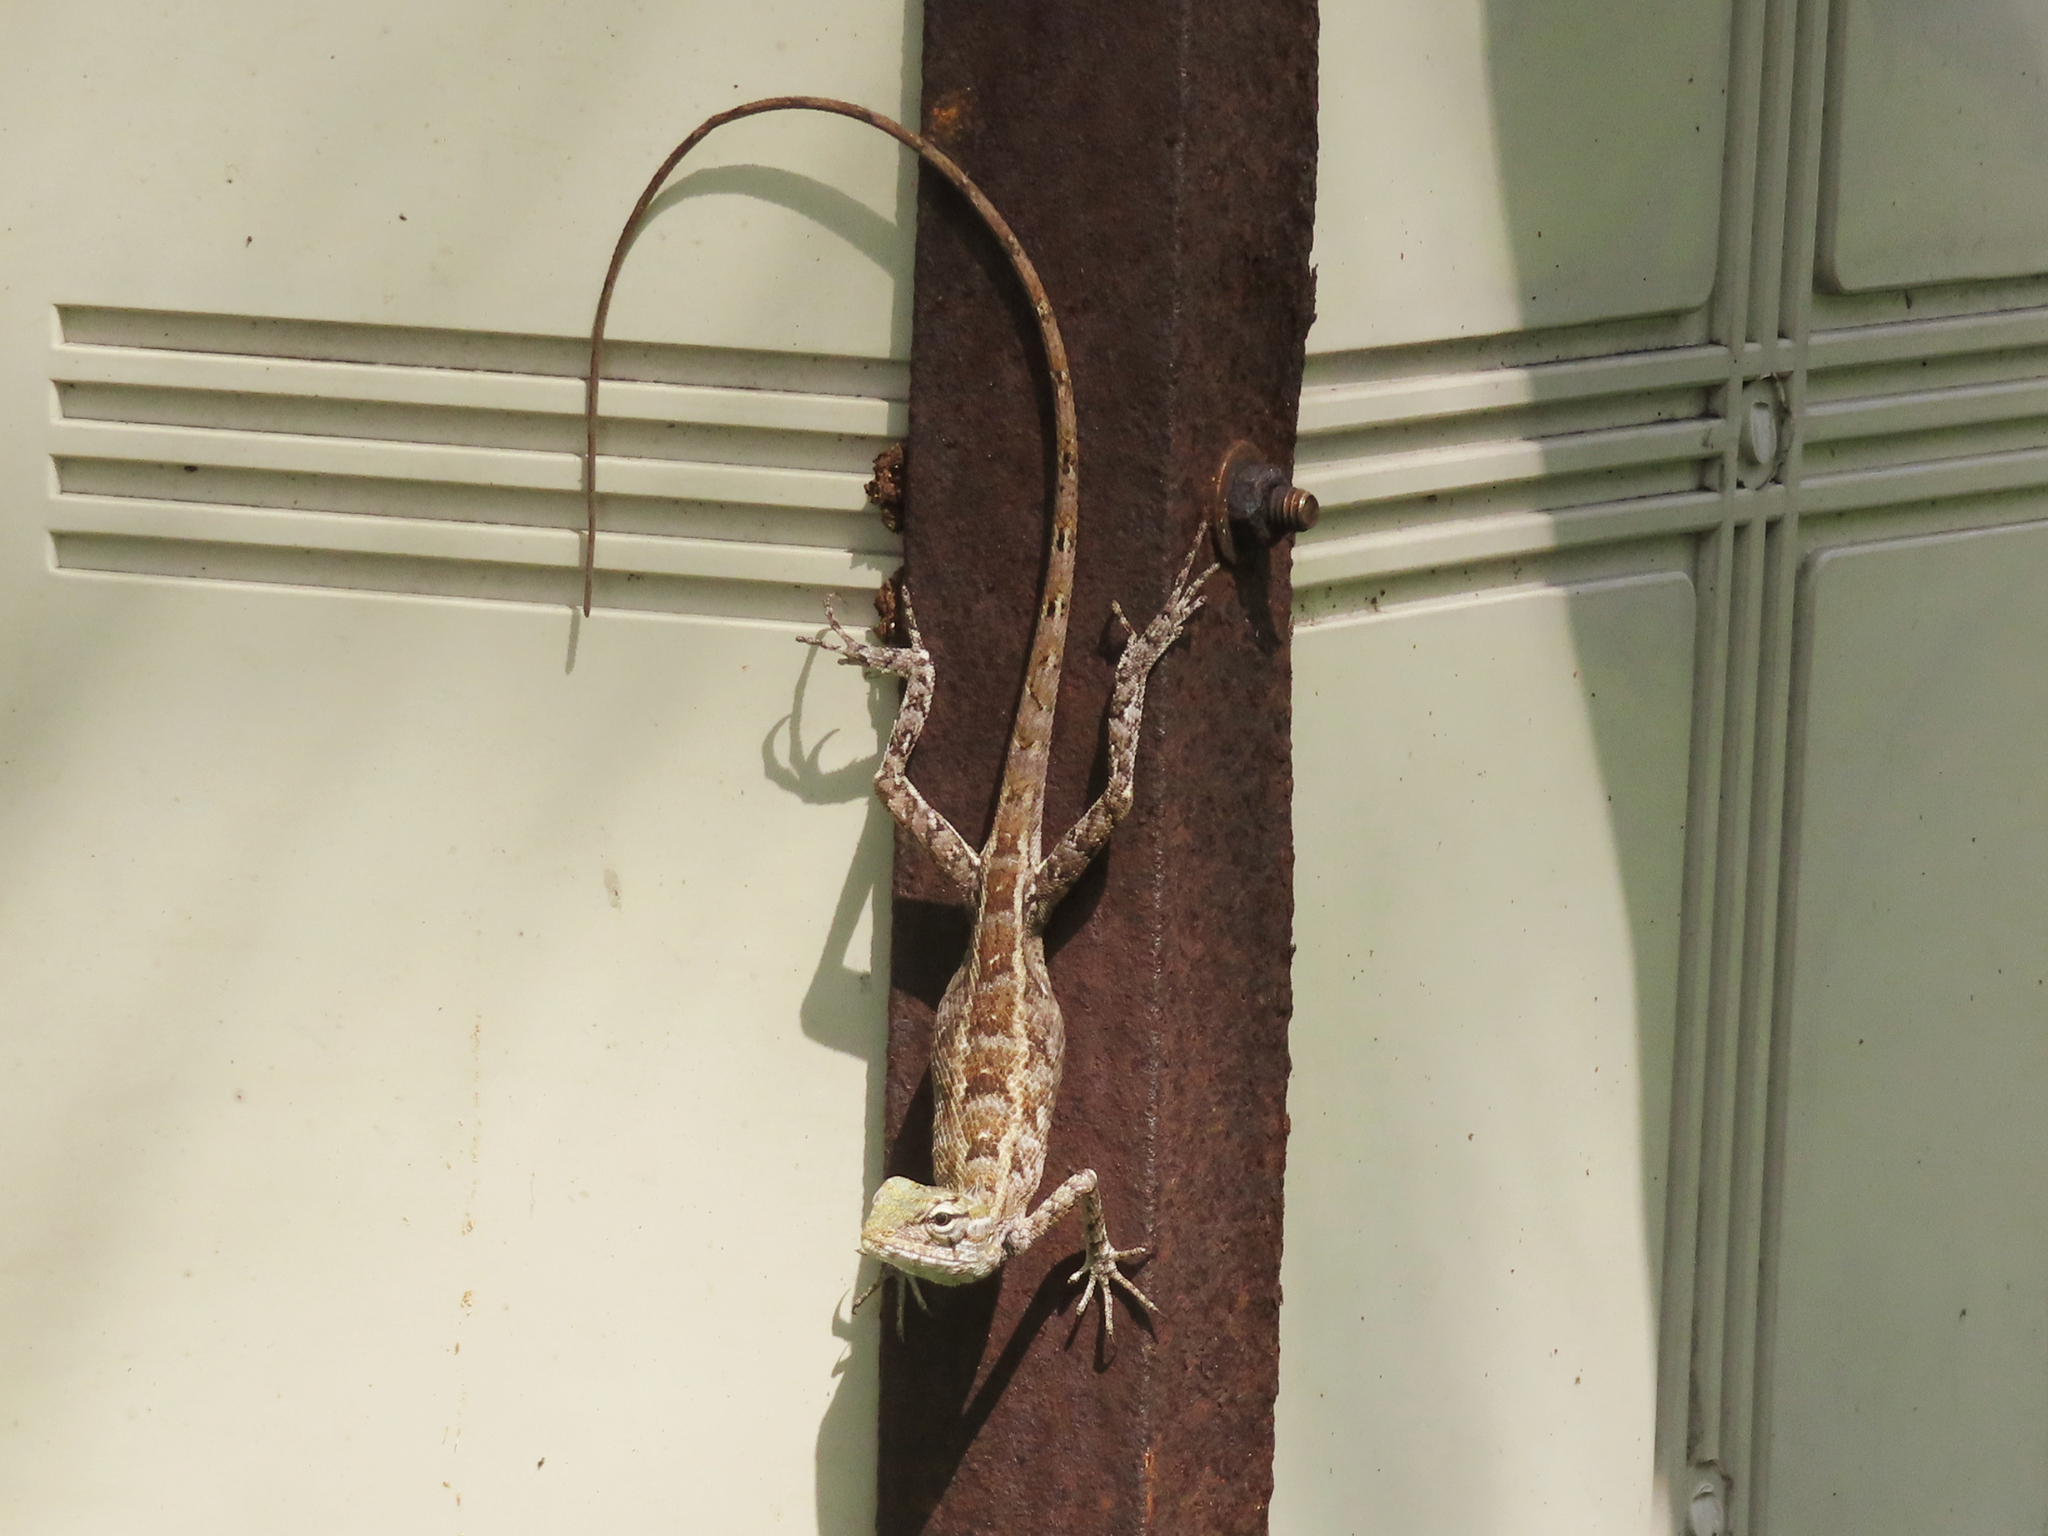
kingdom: Animalia
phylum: Chordata
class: Squamata
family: Agamidae
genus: Calotes
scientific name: Calotes versicolor
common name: Oriental garden lizard
